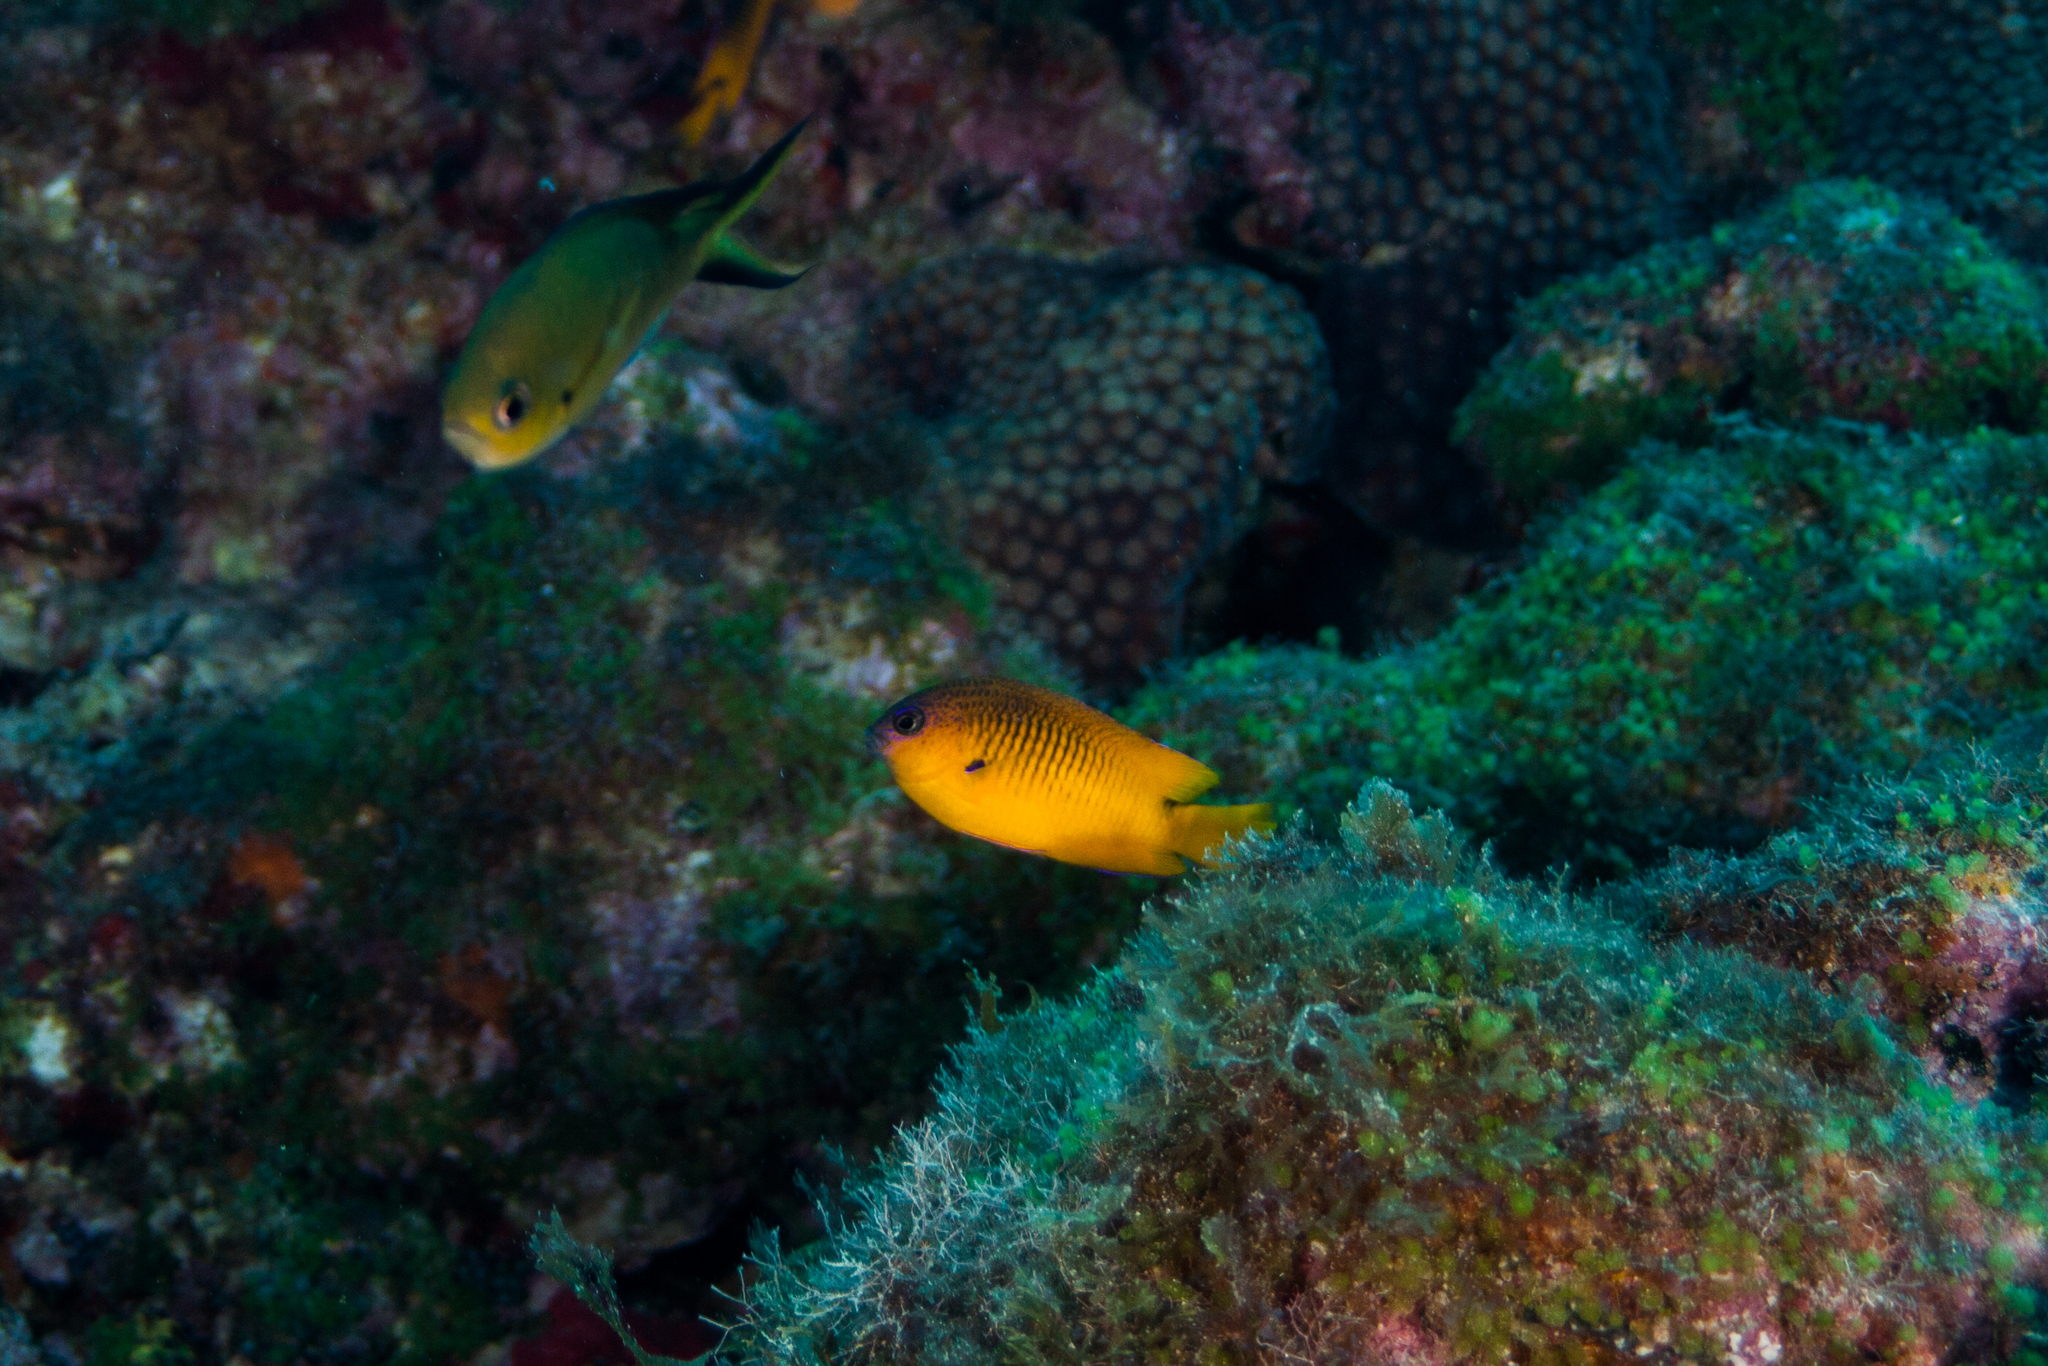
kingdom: Animalia
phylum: Chordata
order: Perciformes
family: Pomacentridae
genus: Stegastes
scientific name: Stegastes rocasensis
